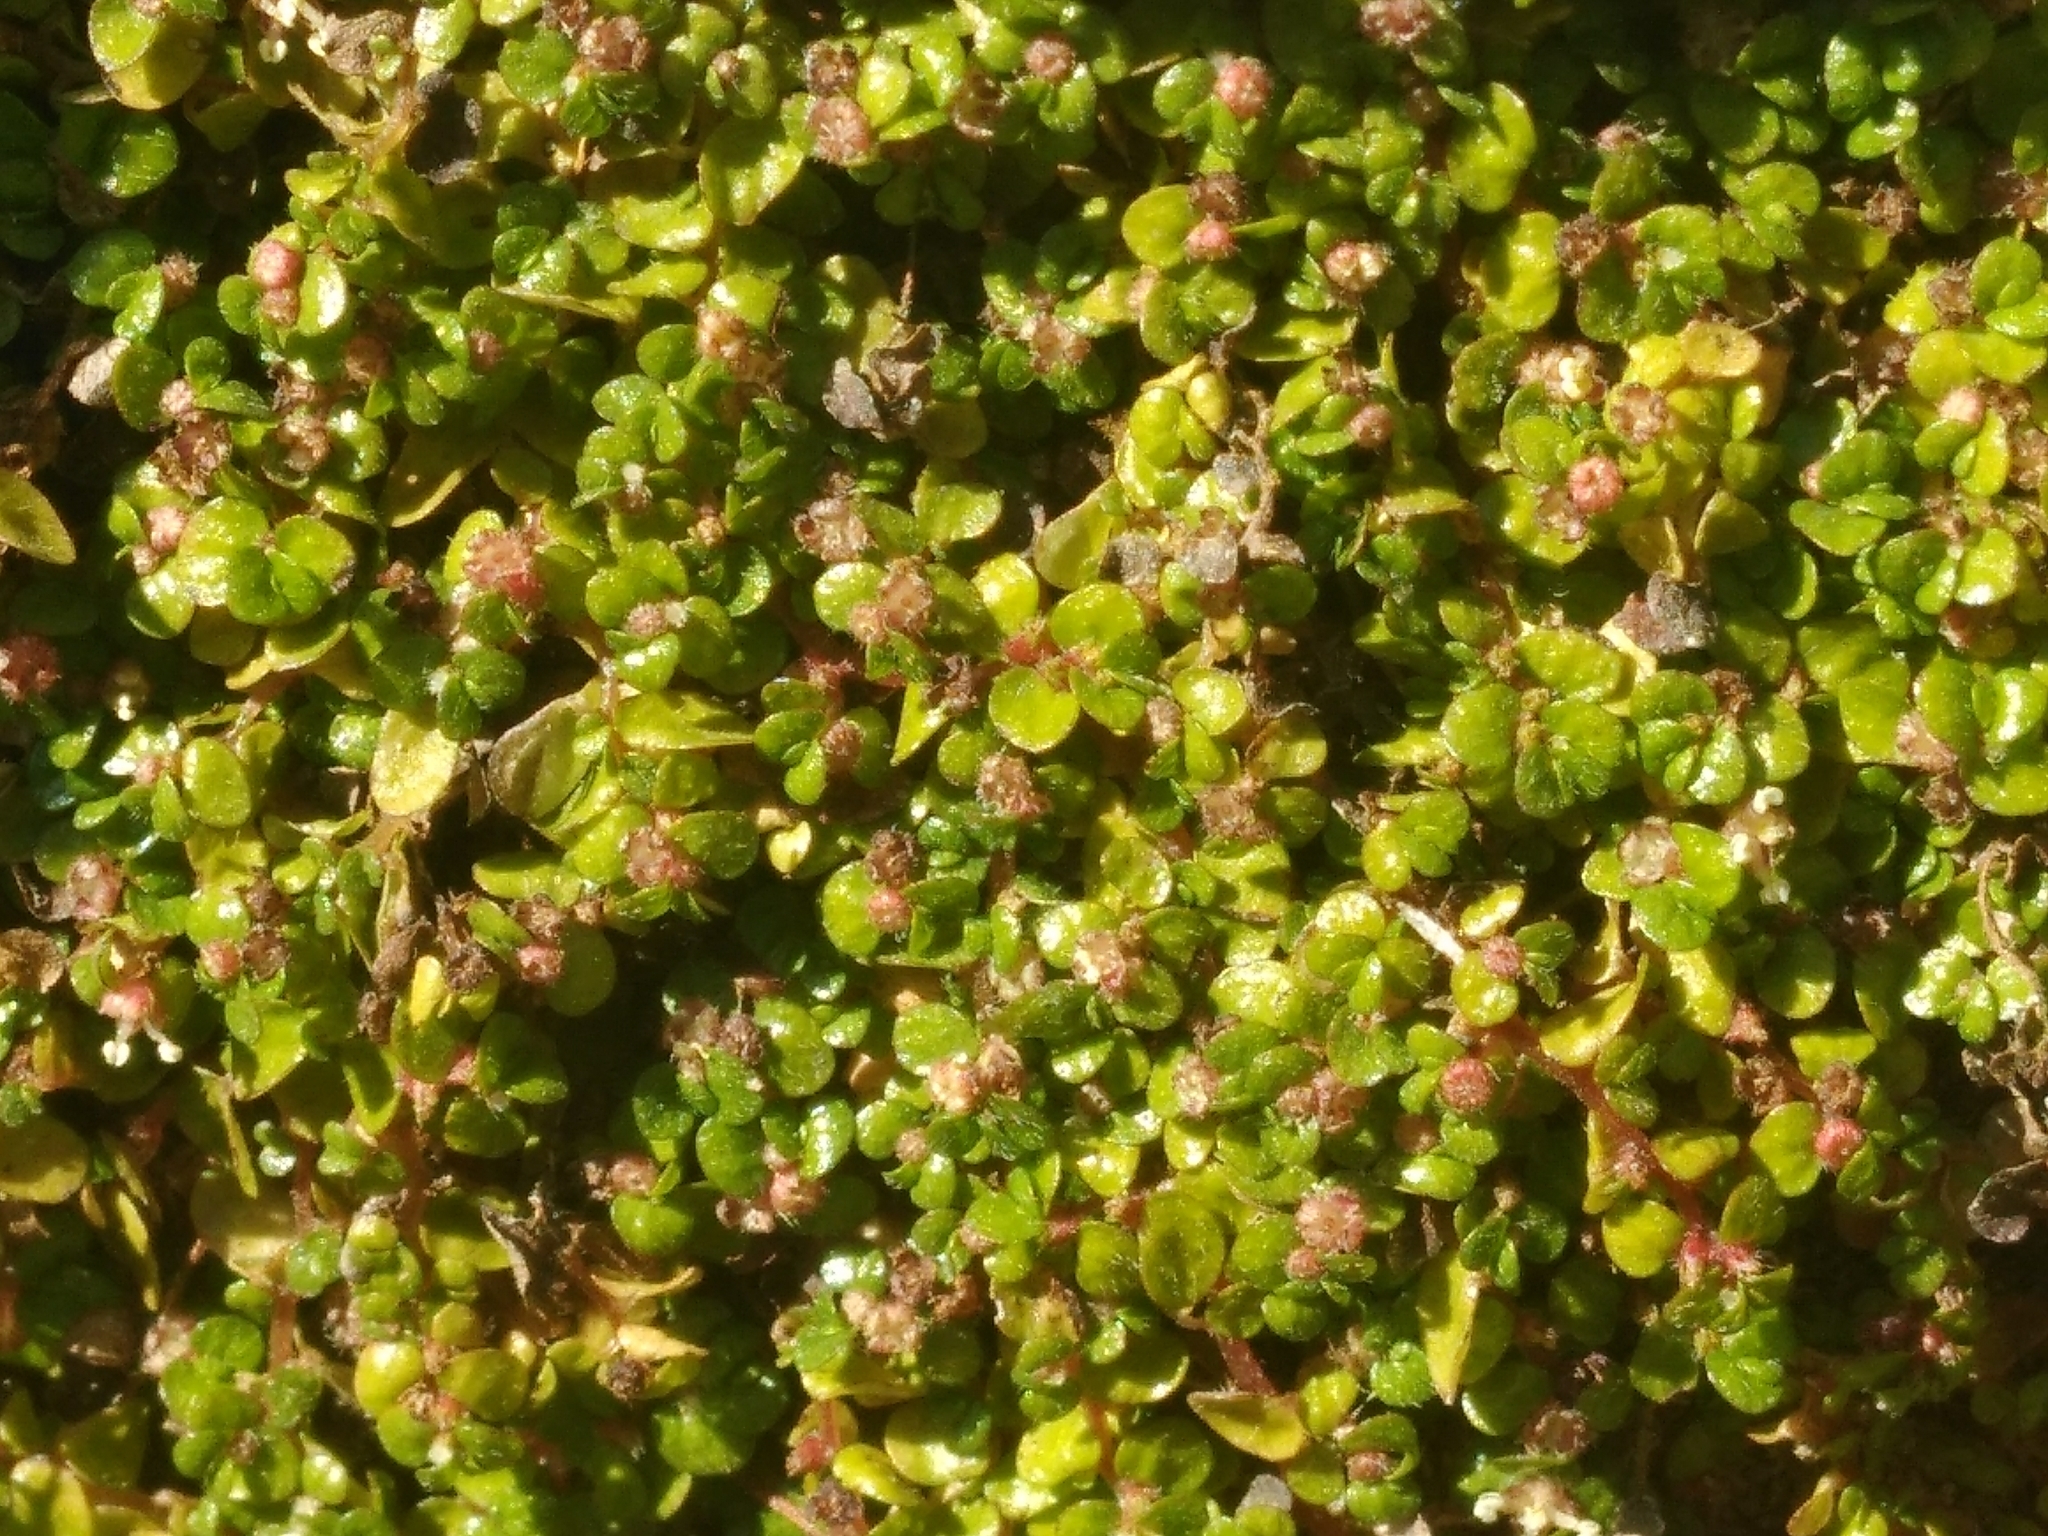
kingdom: Plantae
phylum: Tracheophyta
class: Magnoliopsida
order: Rosales
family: Urticaceae
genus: Soleirolia
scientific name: Soleirolia soleirolii
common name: Mind-your-own-business
